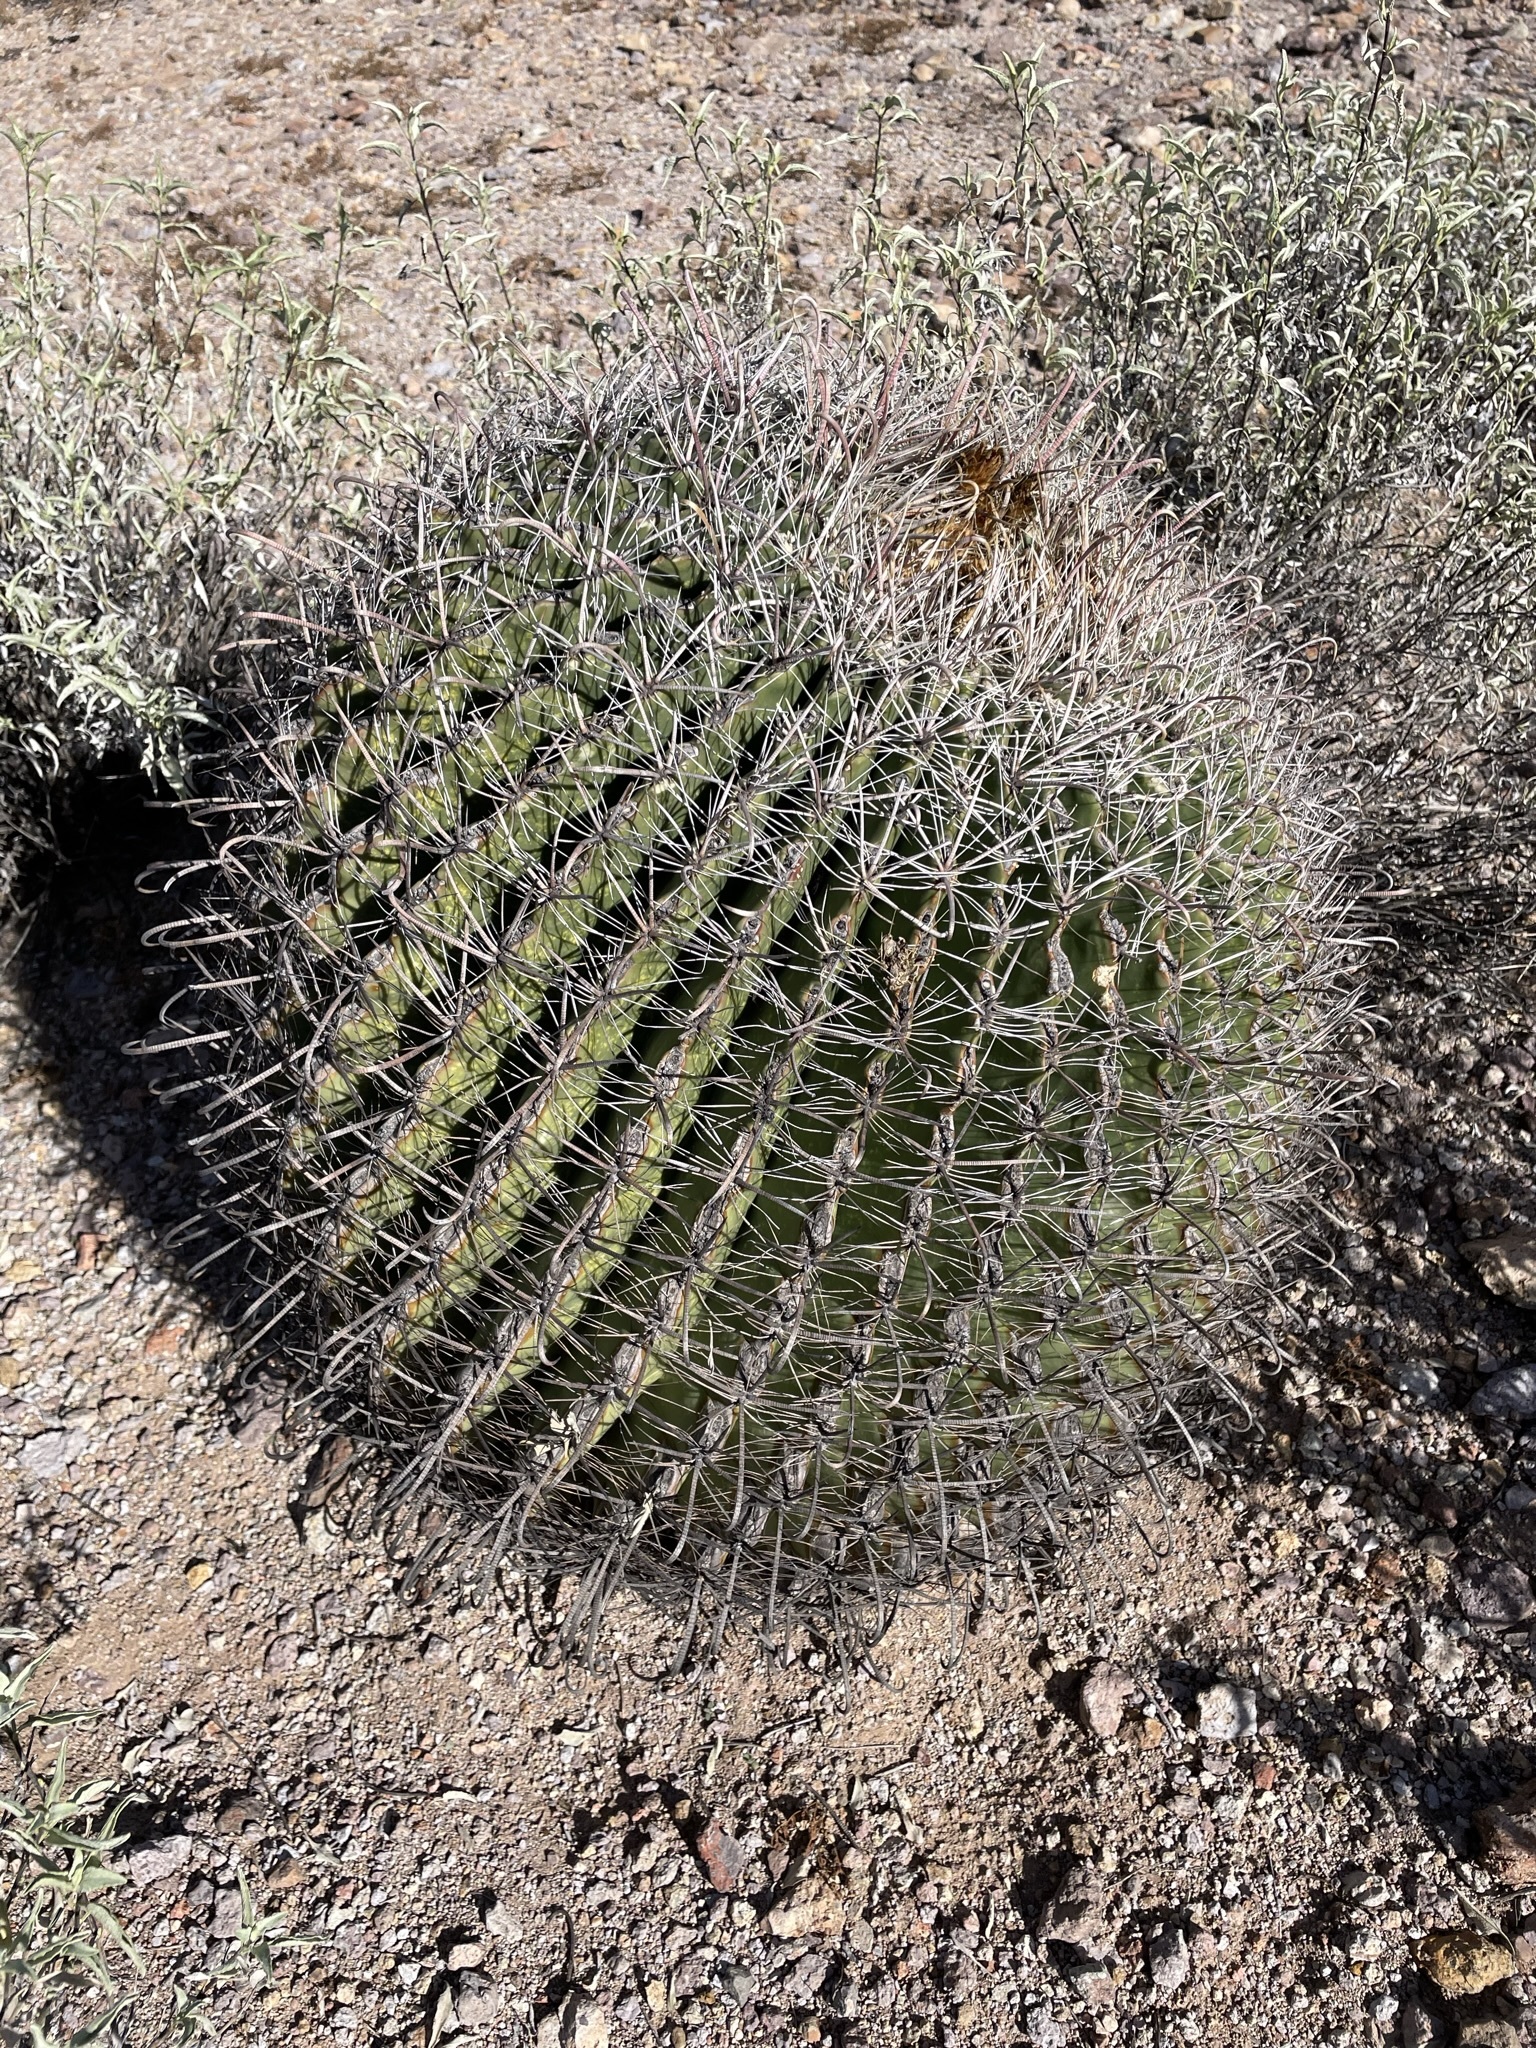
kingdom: Plantae
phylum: Tracheophyta
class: Magnoliopsida
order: Caryophyllales
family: Cactaceae
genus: Ferocactus
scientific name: Ferocactus wislizeni
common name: Candy barrel cactus
